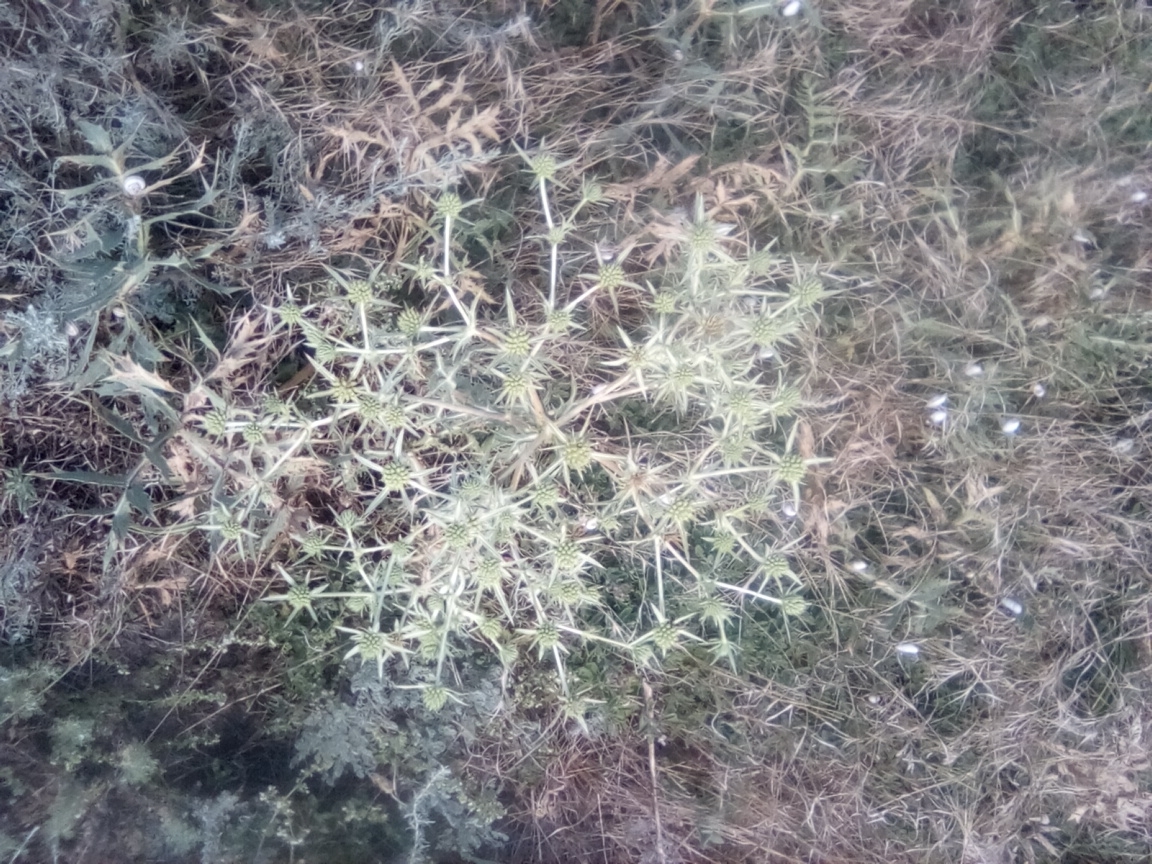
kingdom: Plantae
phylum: Tracheophyta
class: Magnoliopsida
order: Apiales
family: Apiaceae
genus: Eryngium
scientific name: Eryngium campestre
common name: Field eryngo
